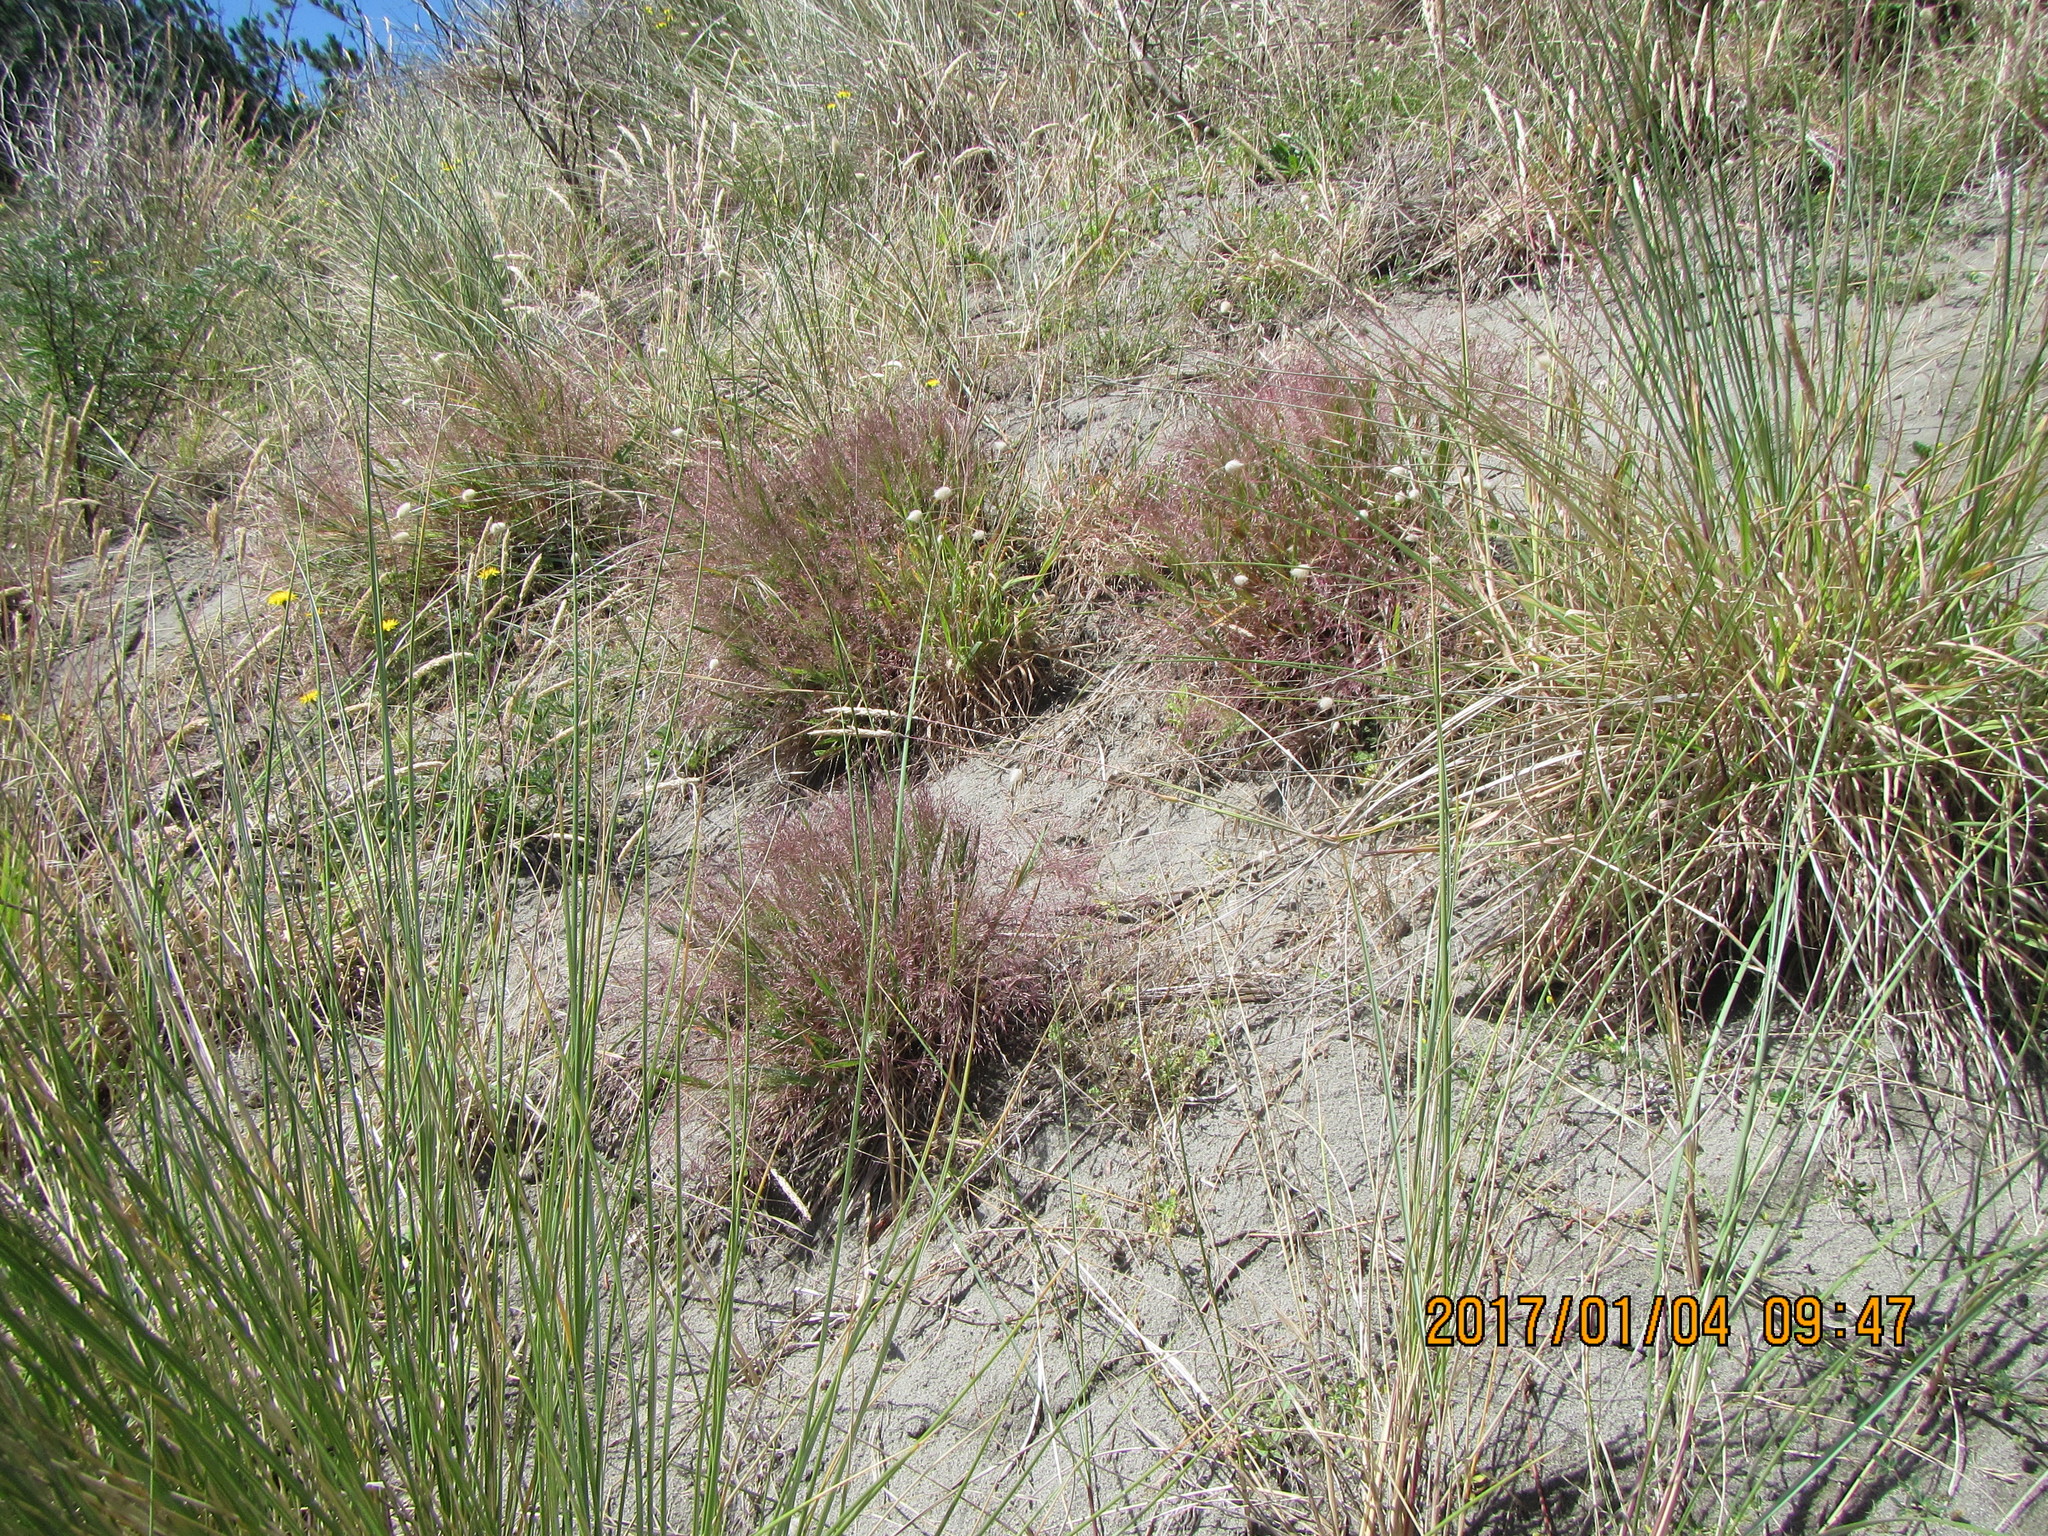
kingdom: Plantae
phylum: Tracheophyta
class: Liliopsida
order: Poales
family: Poaceae
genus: Lachnagrostis
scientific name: Lachnagrostis billardierei
